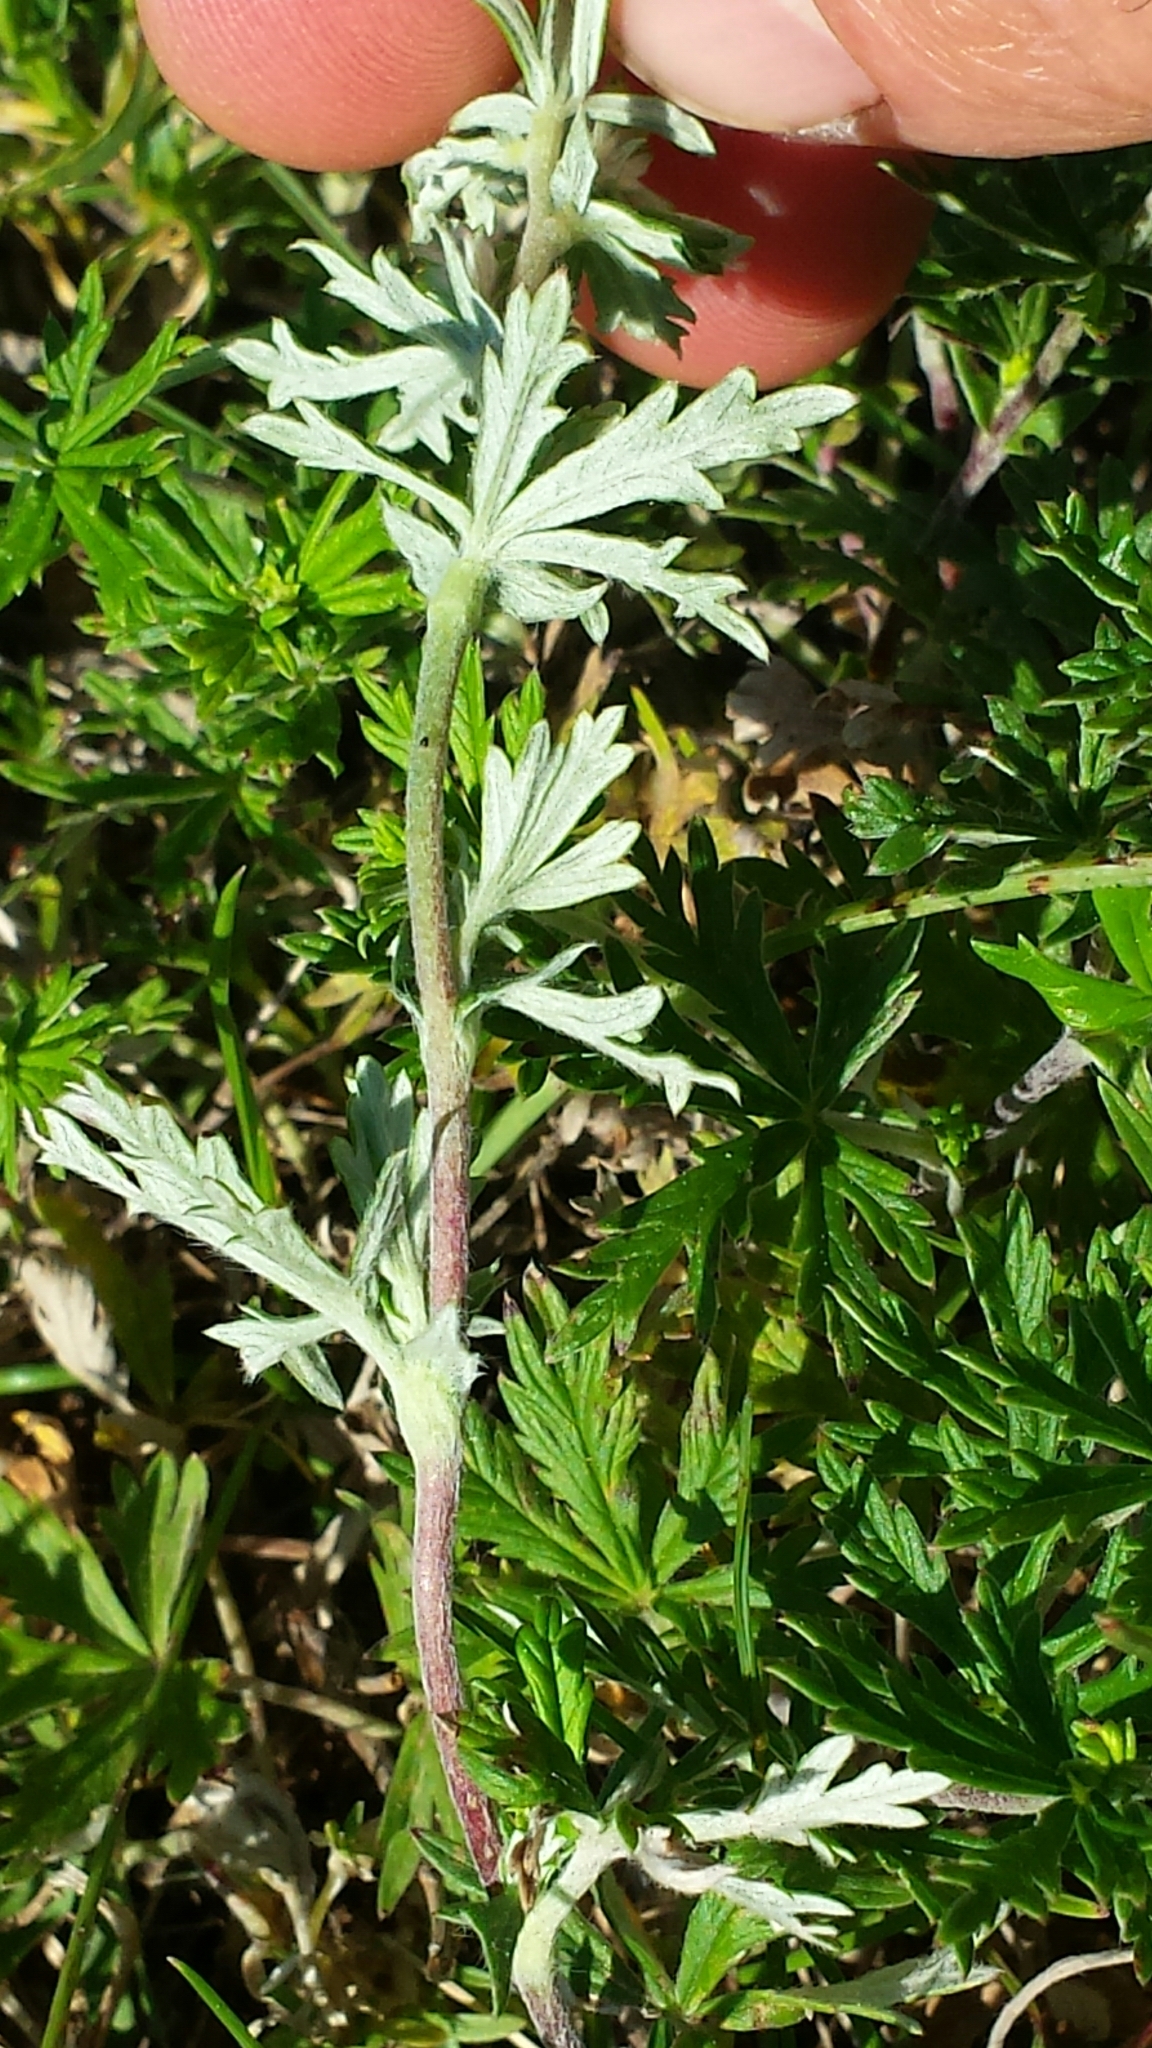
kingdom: Plantae
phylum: Tracheophyta
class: Magnoliopsida
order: Rosales
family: Rosaceae
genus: Potentilla
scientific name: Potentilla argentea
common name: Hoary cinquefoil
